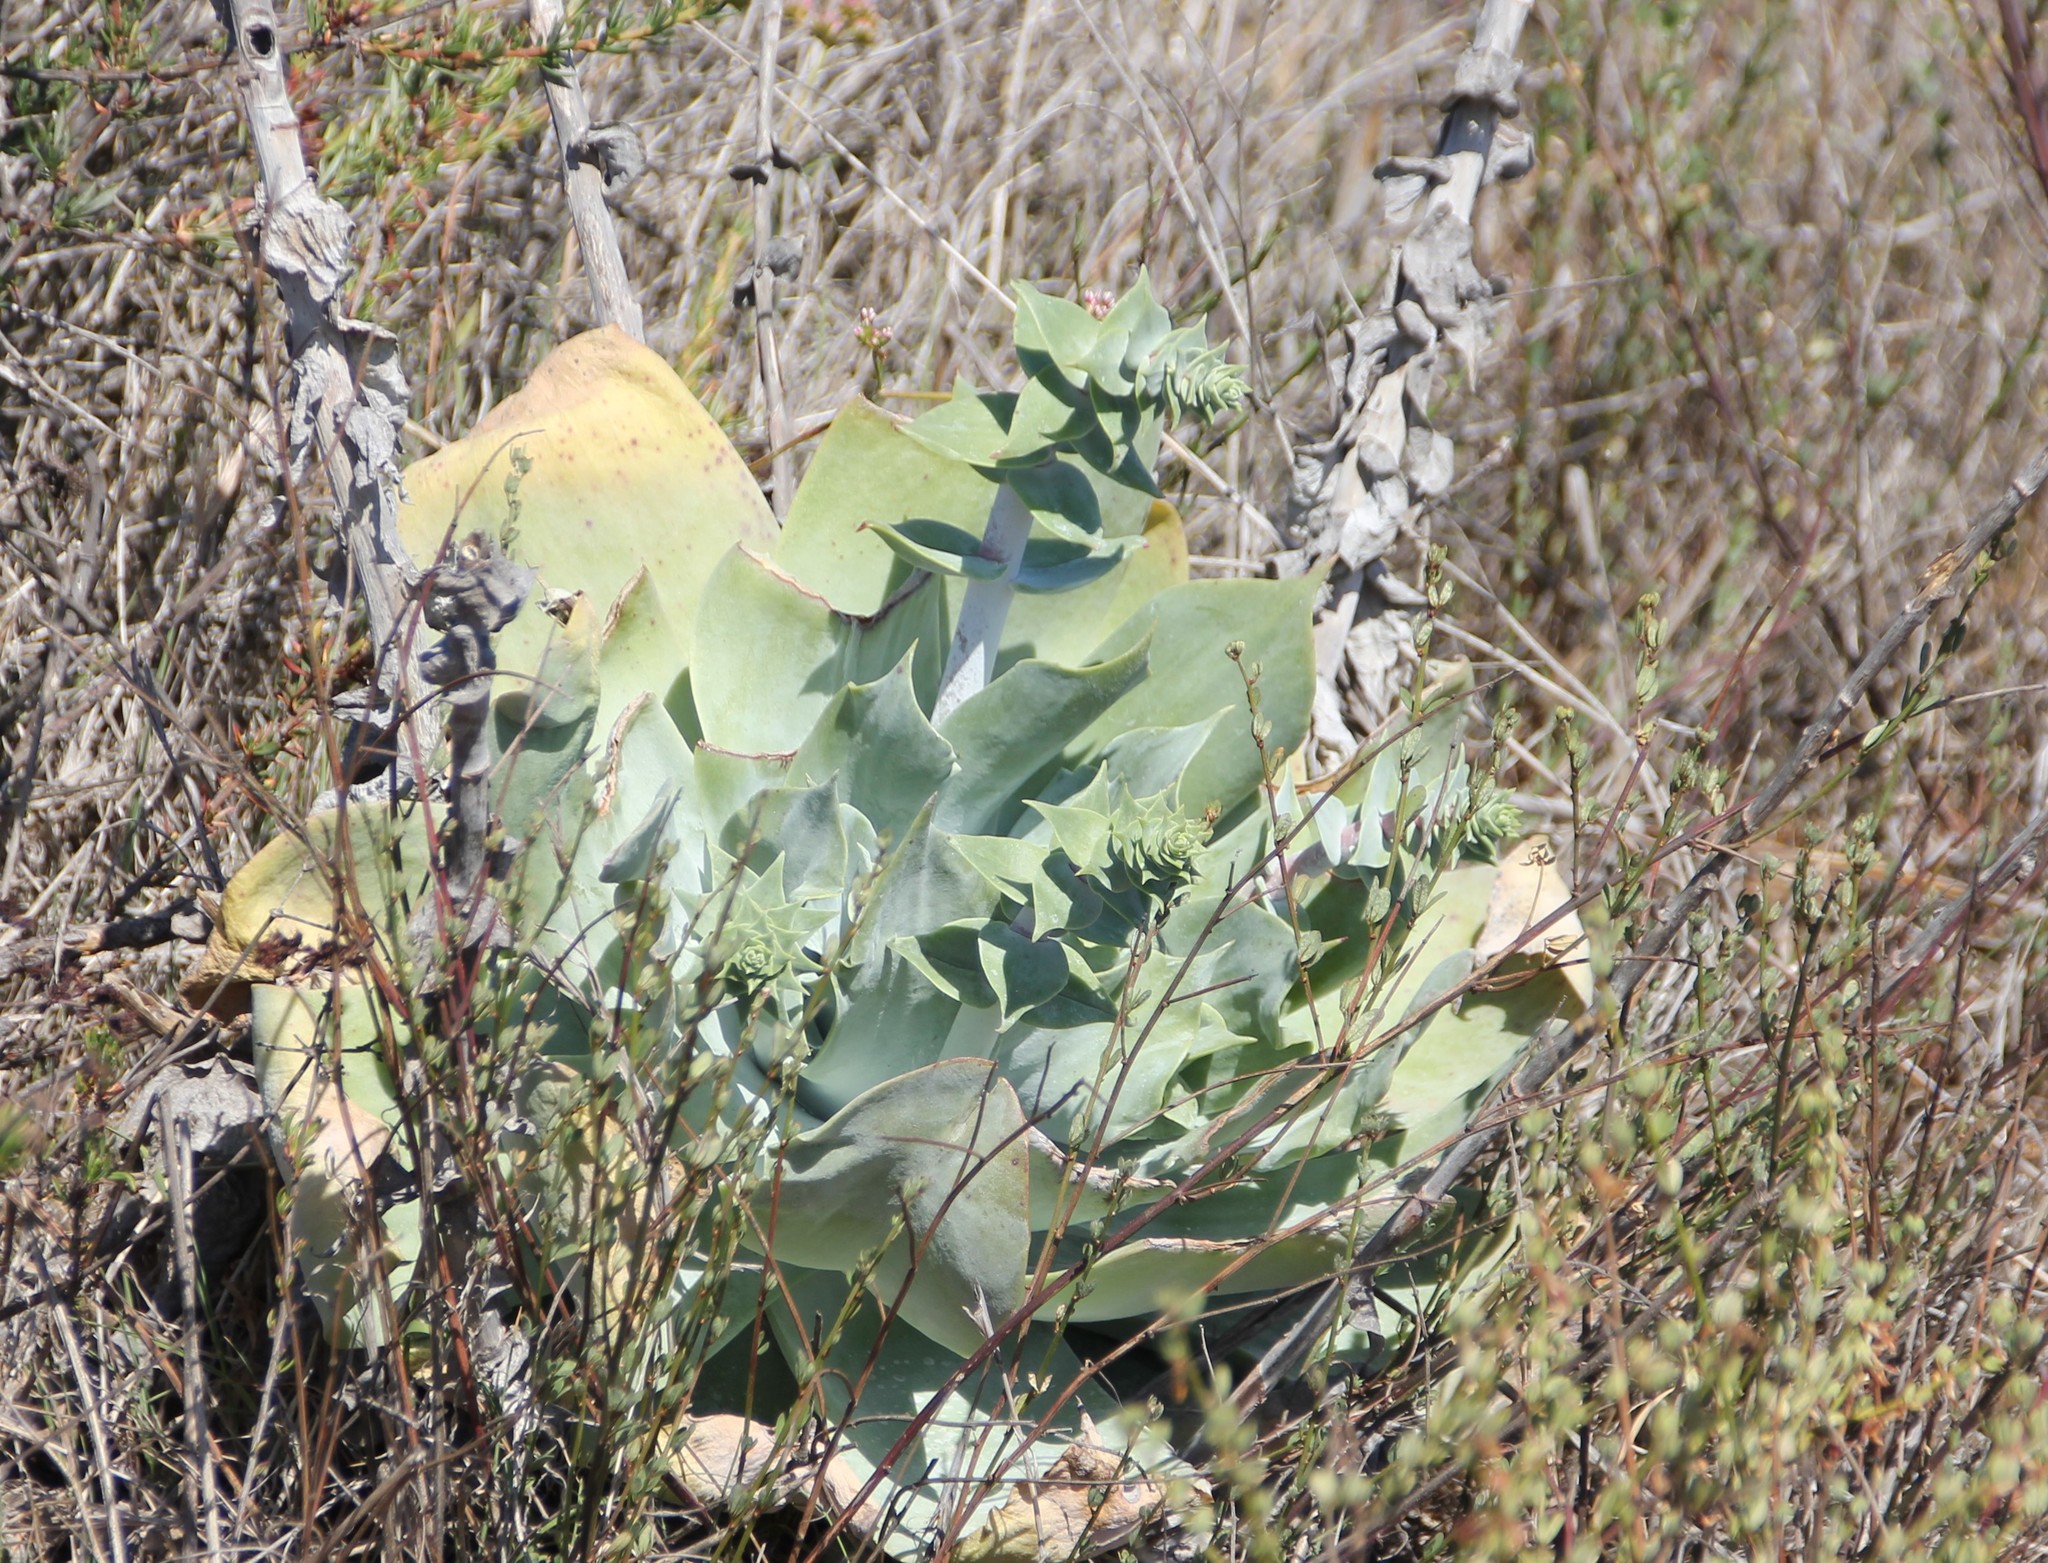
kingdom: Plantae
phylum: Tracheophyta
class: Magnoliopsida
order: Saxifragales
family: Crassulaceae
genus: Dudleya
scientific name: Dudleya pulverulenta
